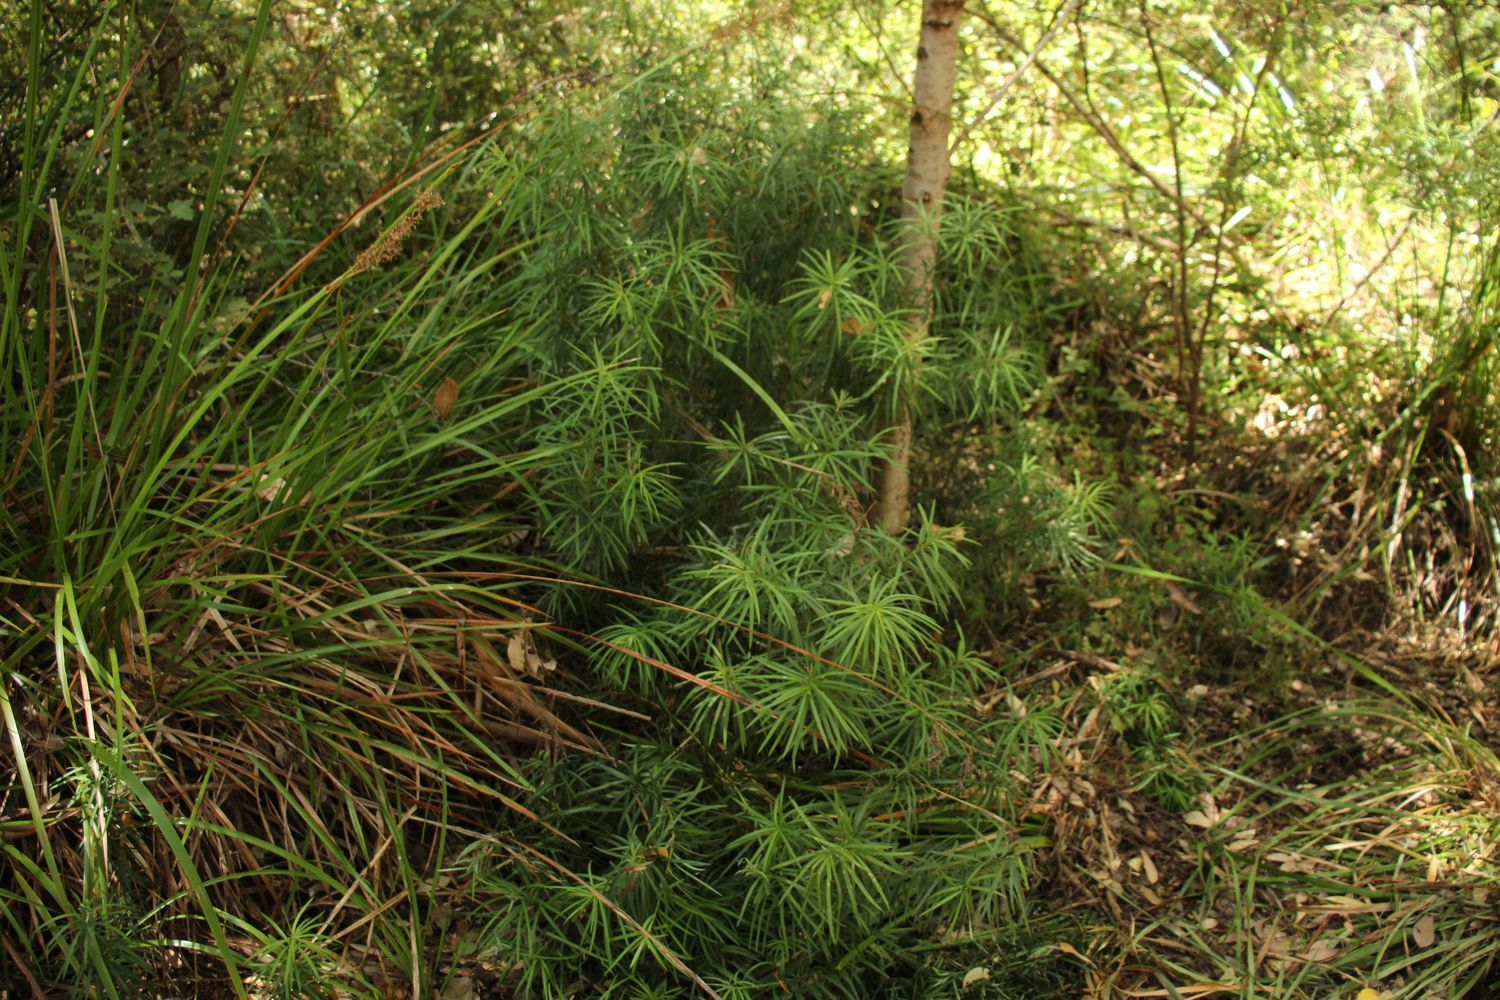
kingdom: Plantae
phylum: Tracheophyta
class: Pinopsida
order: Pinales
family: Podocarpaceae
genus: Podocarpus
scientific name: Podocarpus drouynianus
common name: Emu berry
